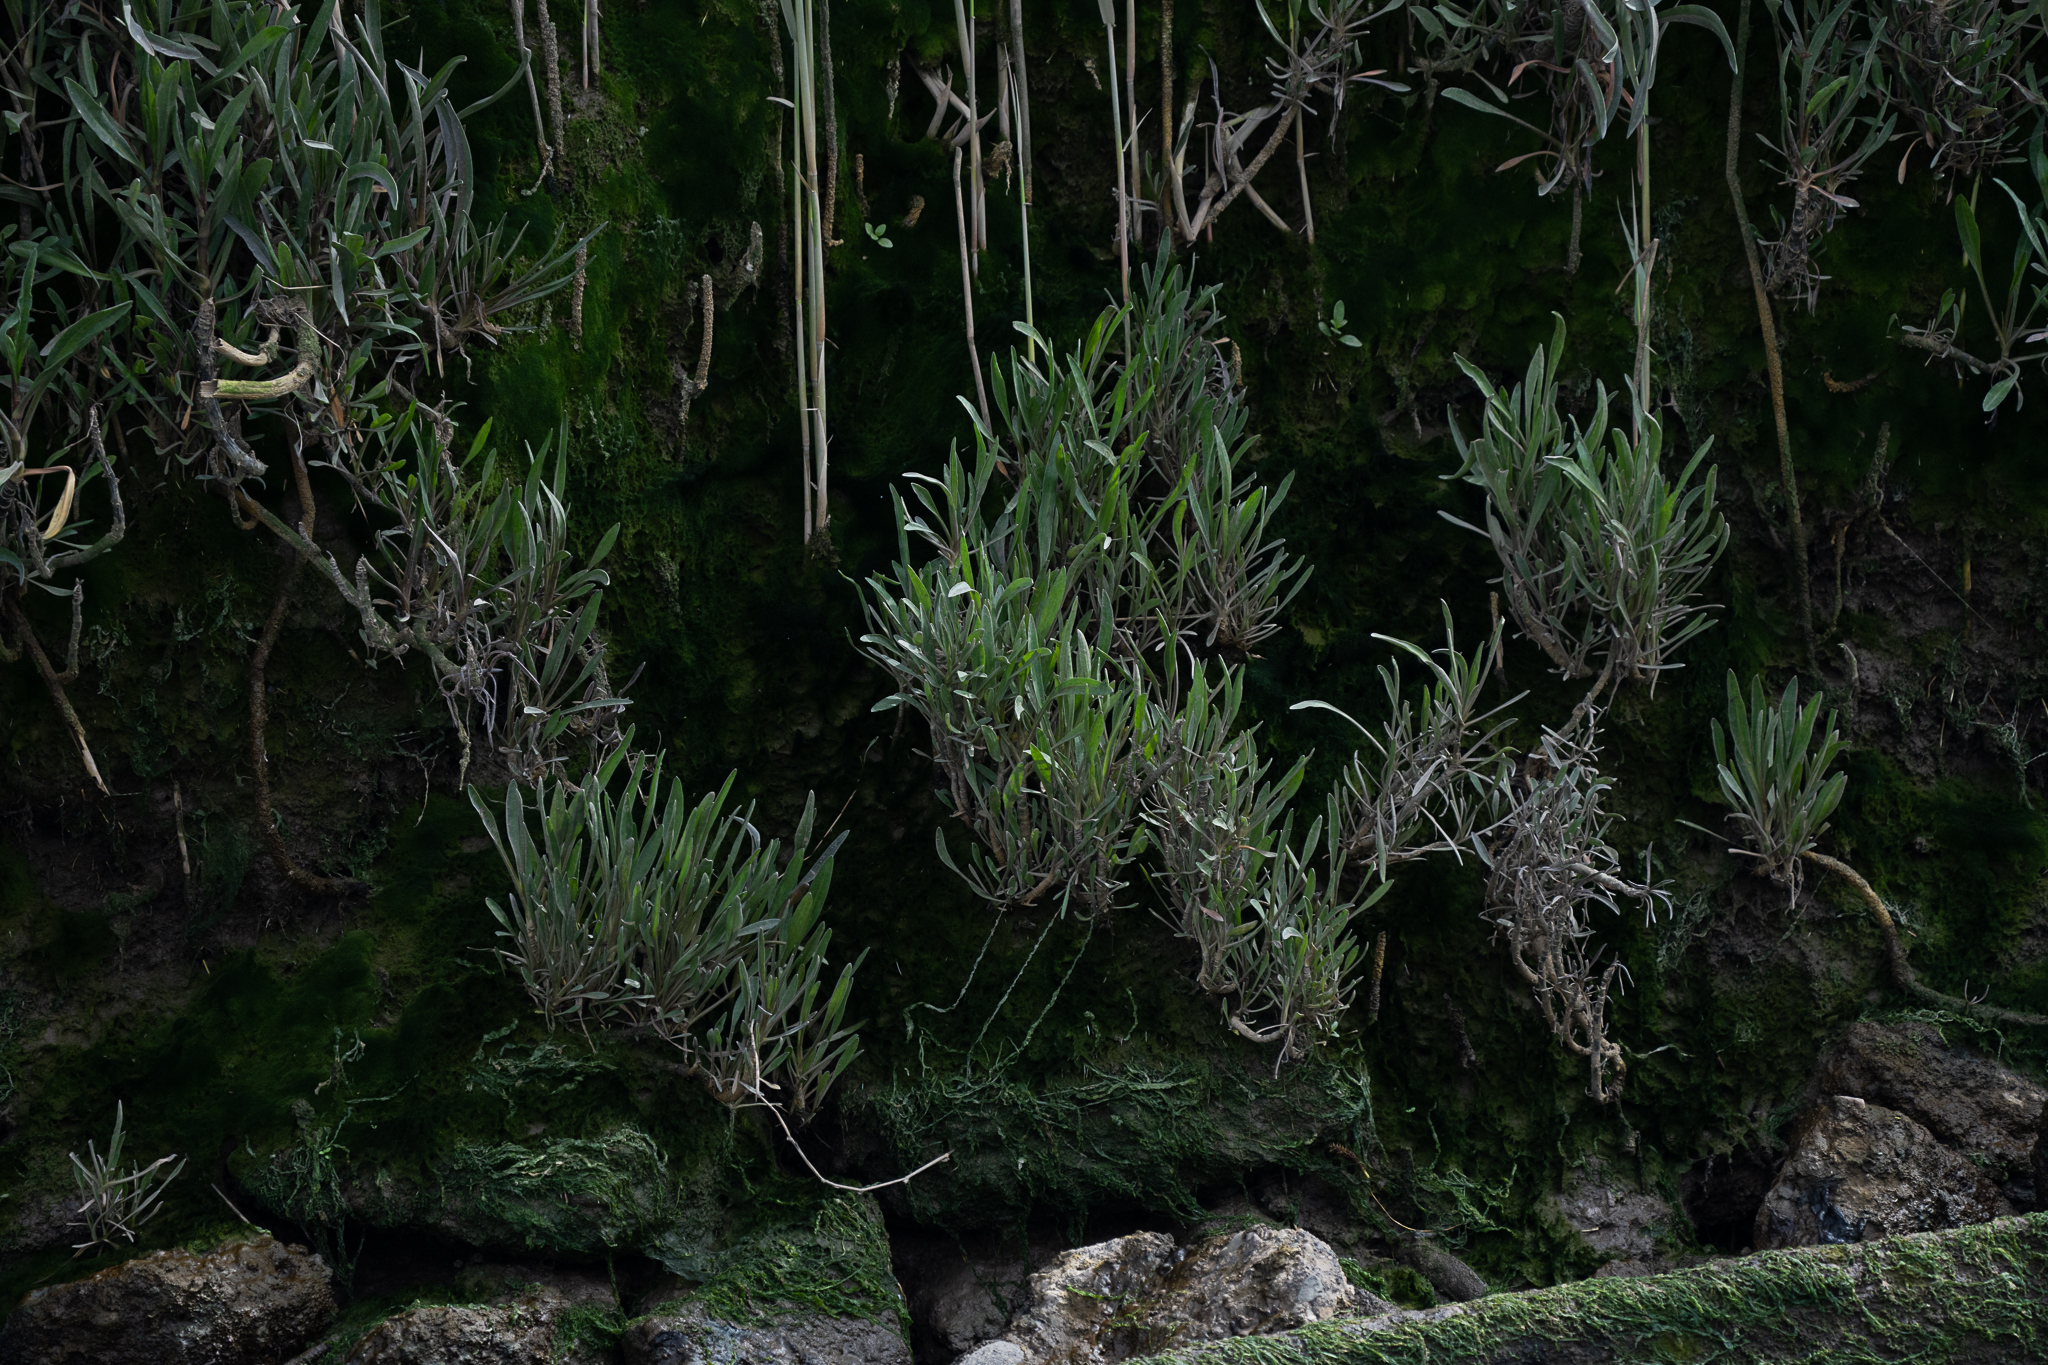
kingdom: Plantae
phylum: Tracheophyta
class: Magnoliopsida
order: Asterales
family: Asteraceae
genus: Tripolium
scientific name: Tripolium pannonicum
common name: Sea aster
